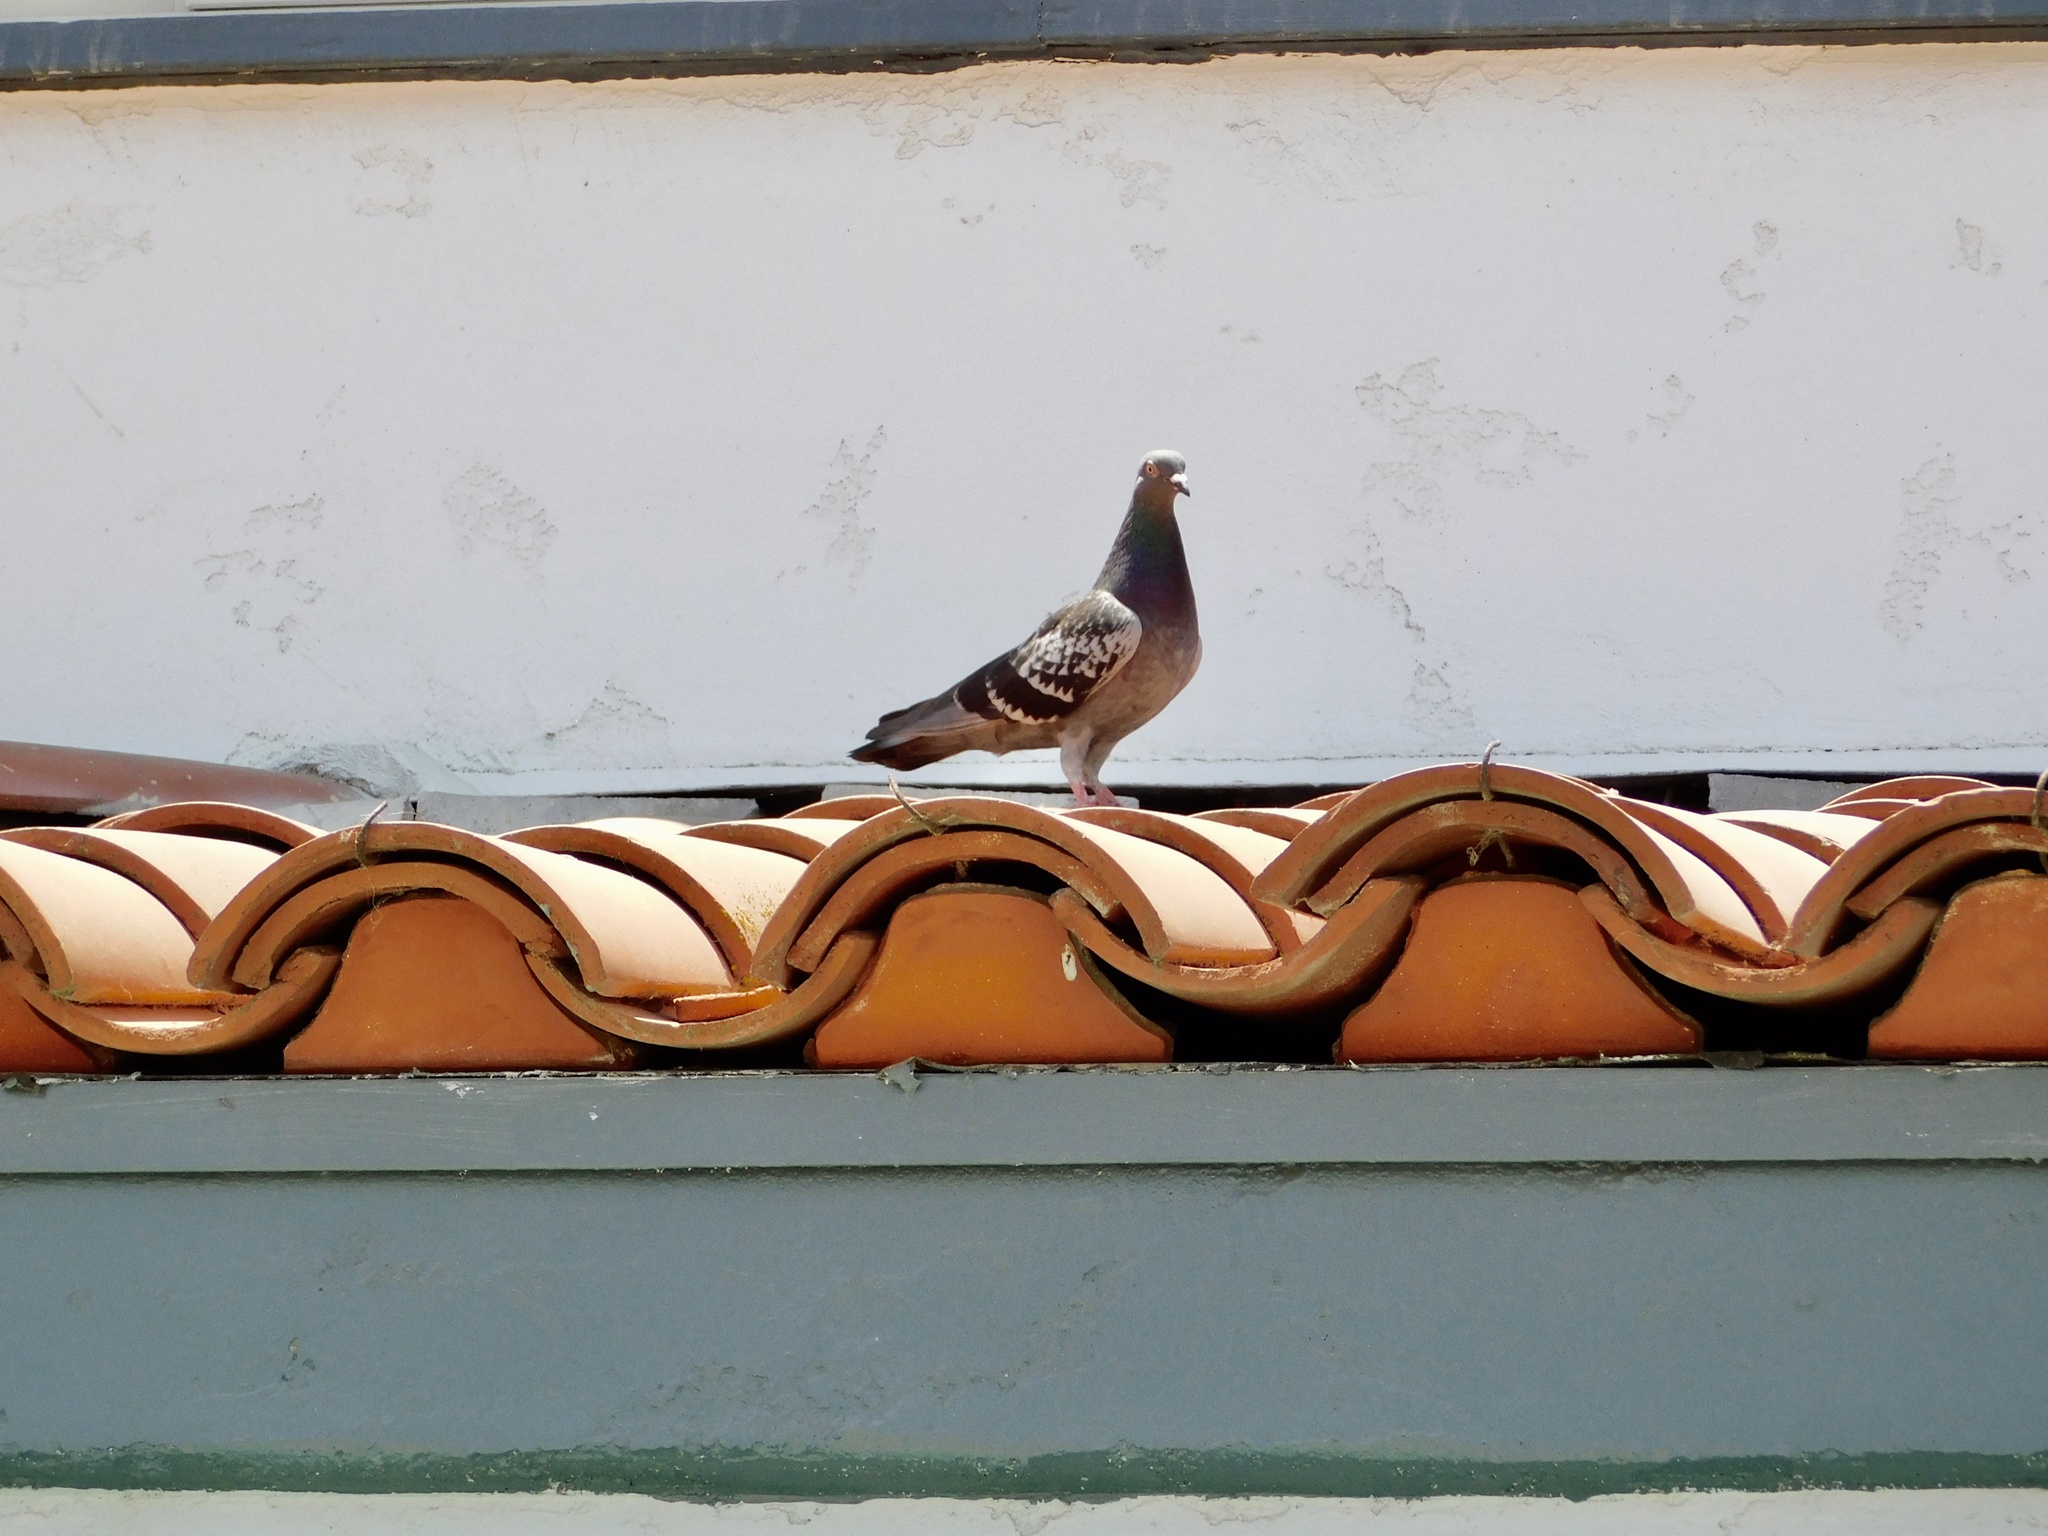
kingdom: Animalia
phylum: Chordata
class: Aves
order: Columbiformes
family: Columbidae
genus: Columba
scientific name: Columba livia
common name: Rock pigeon
